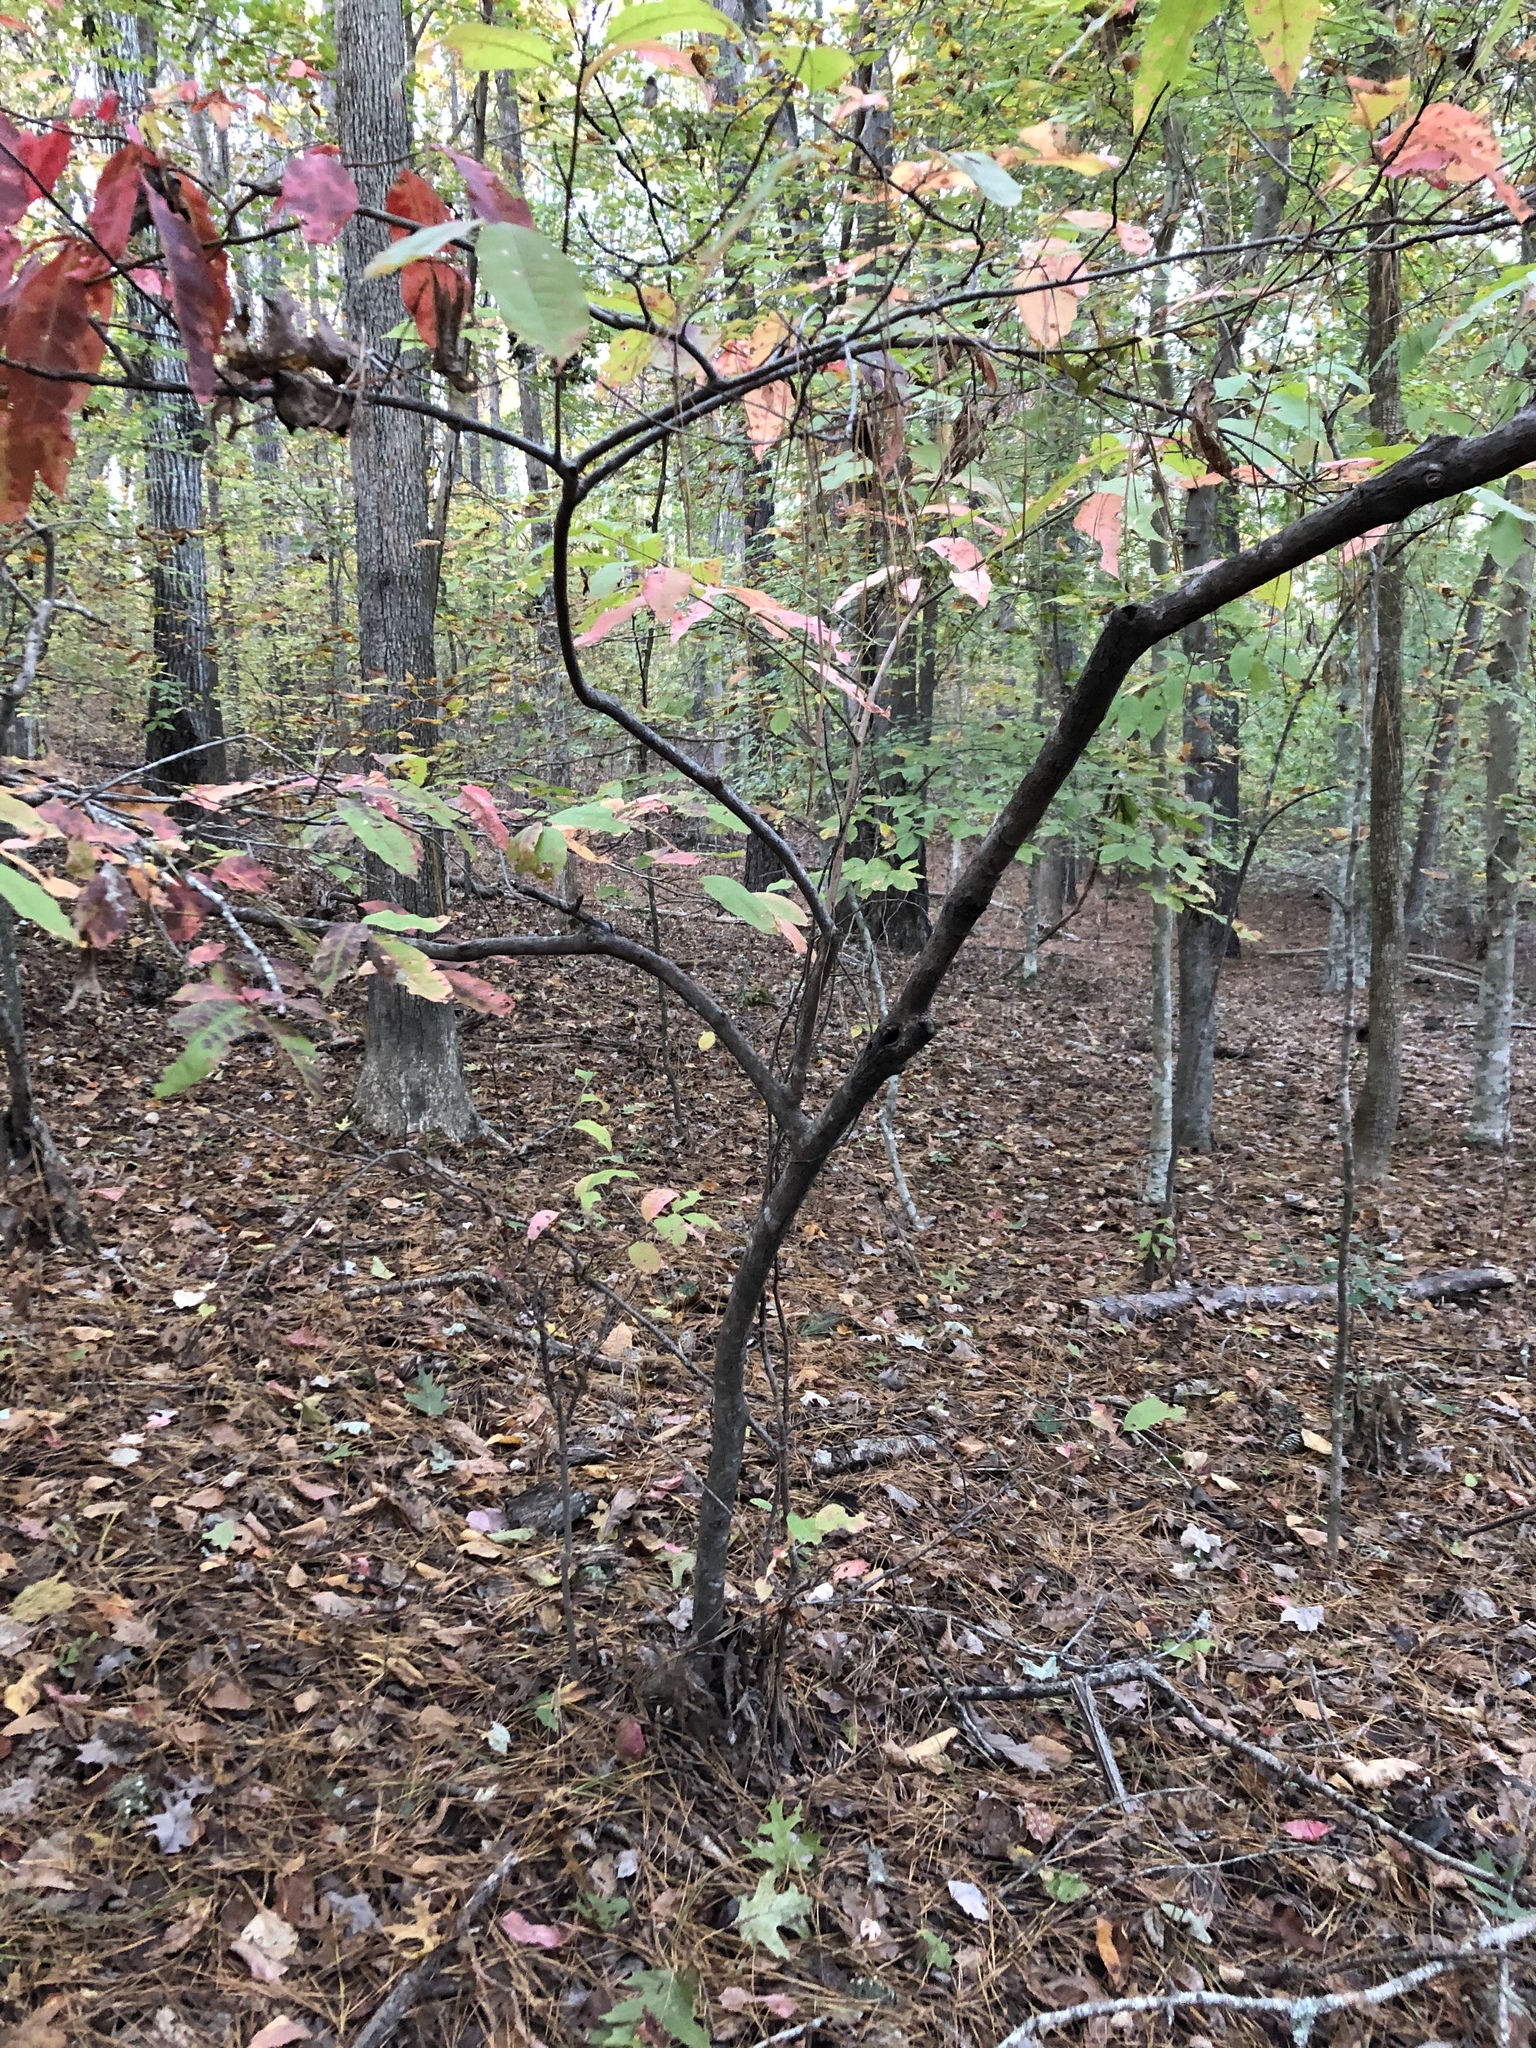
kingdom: Plantae
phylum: Tracheophyta
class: Magnoliopsida
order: Ericales
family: Ericaceae
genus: Oxydendrum
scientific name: Oxydendrum arboreum
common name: Sourwood
